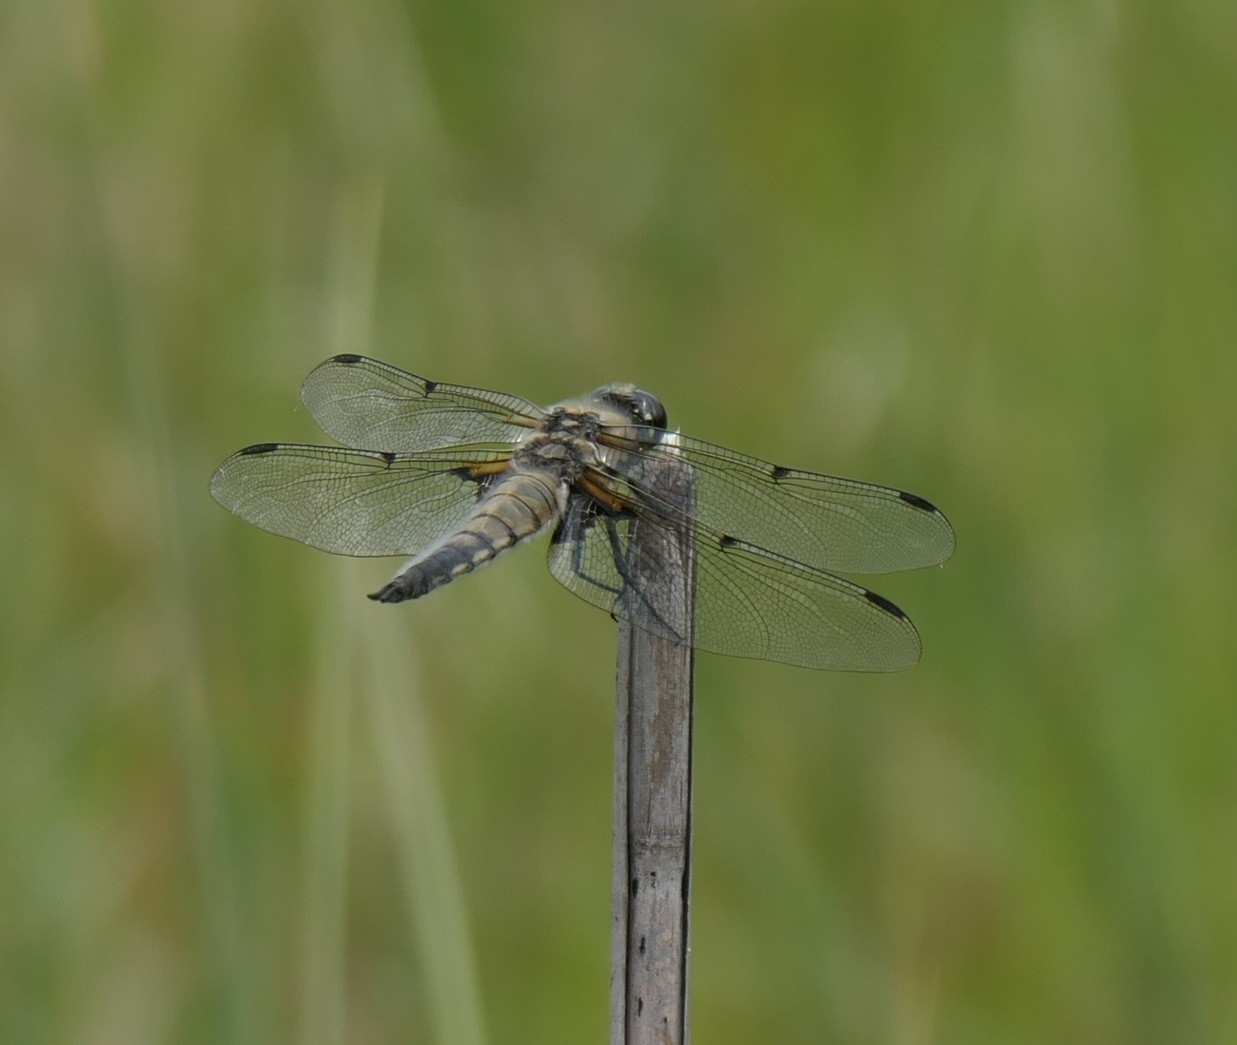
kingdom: Animalia
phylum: Arthropoda
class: Insecta
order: Odonata
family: Libellulidae
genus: Libellula
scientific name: Libellula quadrimaculata
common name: Four-spotted chaser
